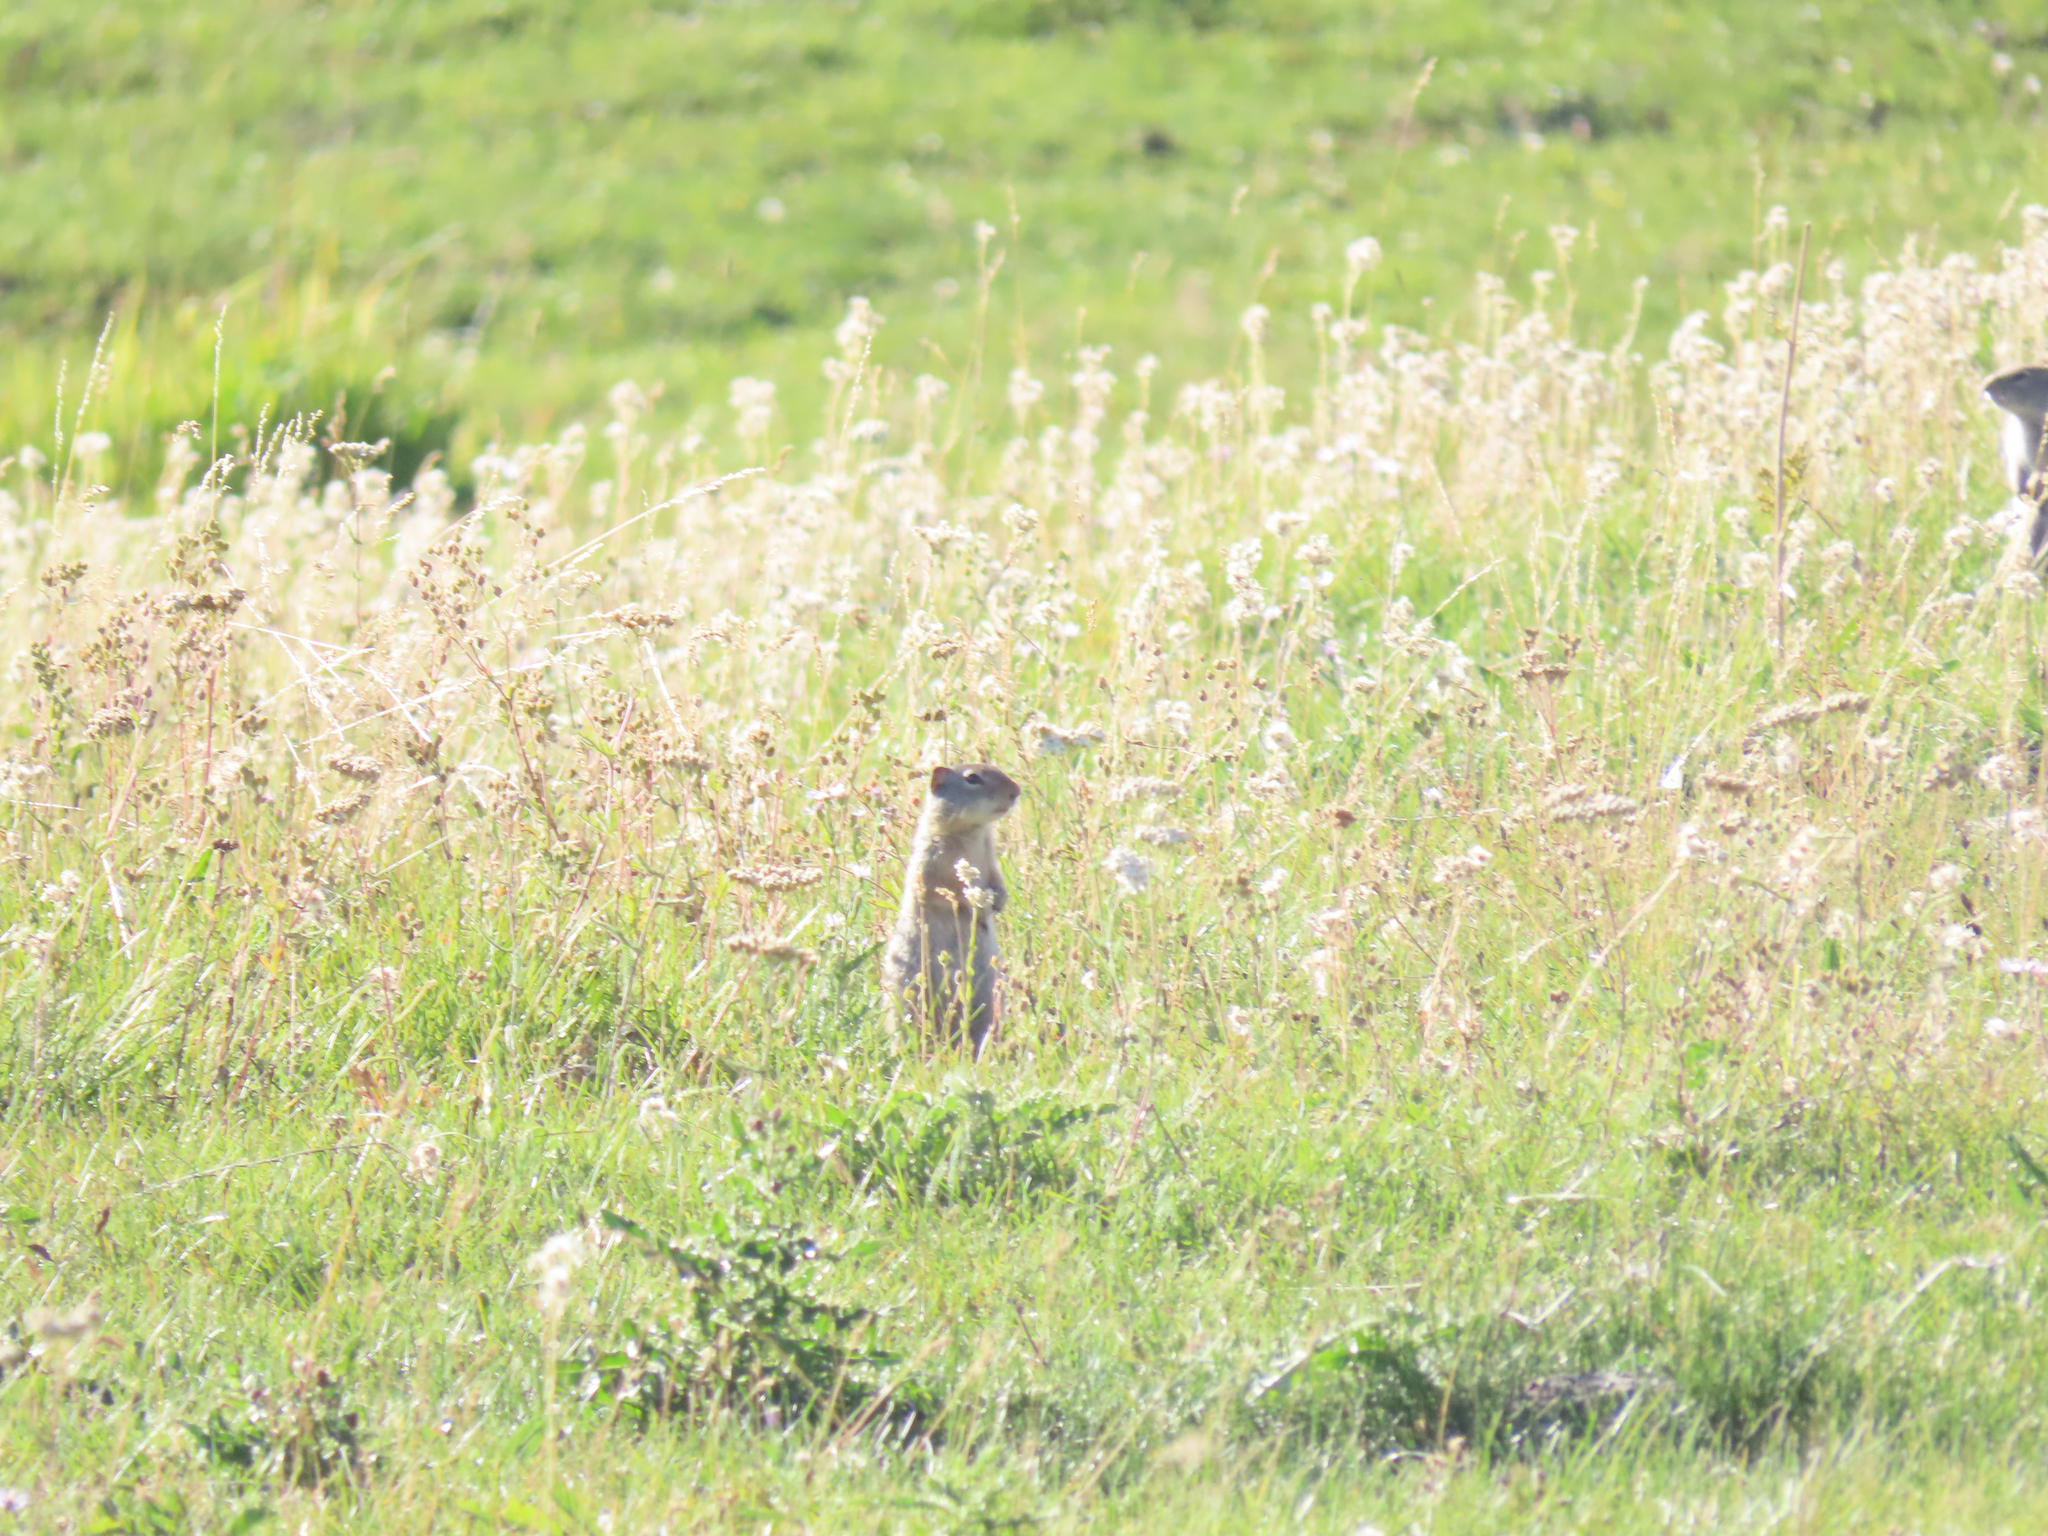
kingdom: Animalia
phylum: Chordata
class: Mammalia
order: Rodentia
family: Sciuridae
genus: Urocitellus
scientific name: Urocitellus armatus
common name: Uinta ground squirrel
